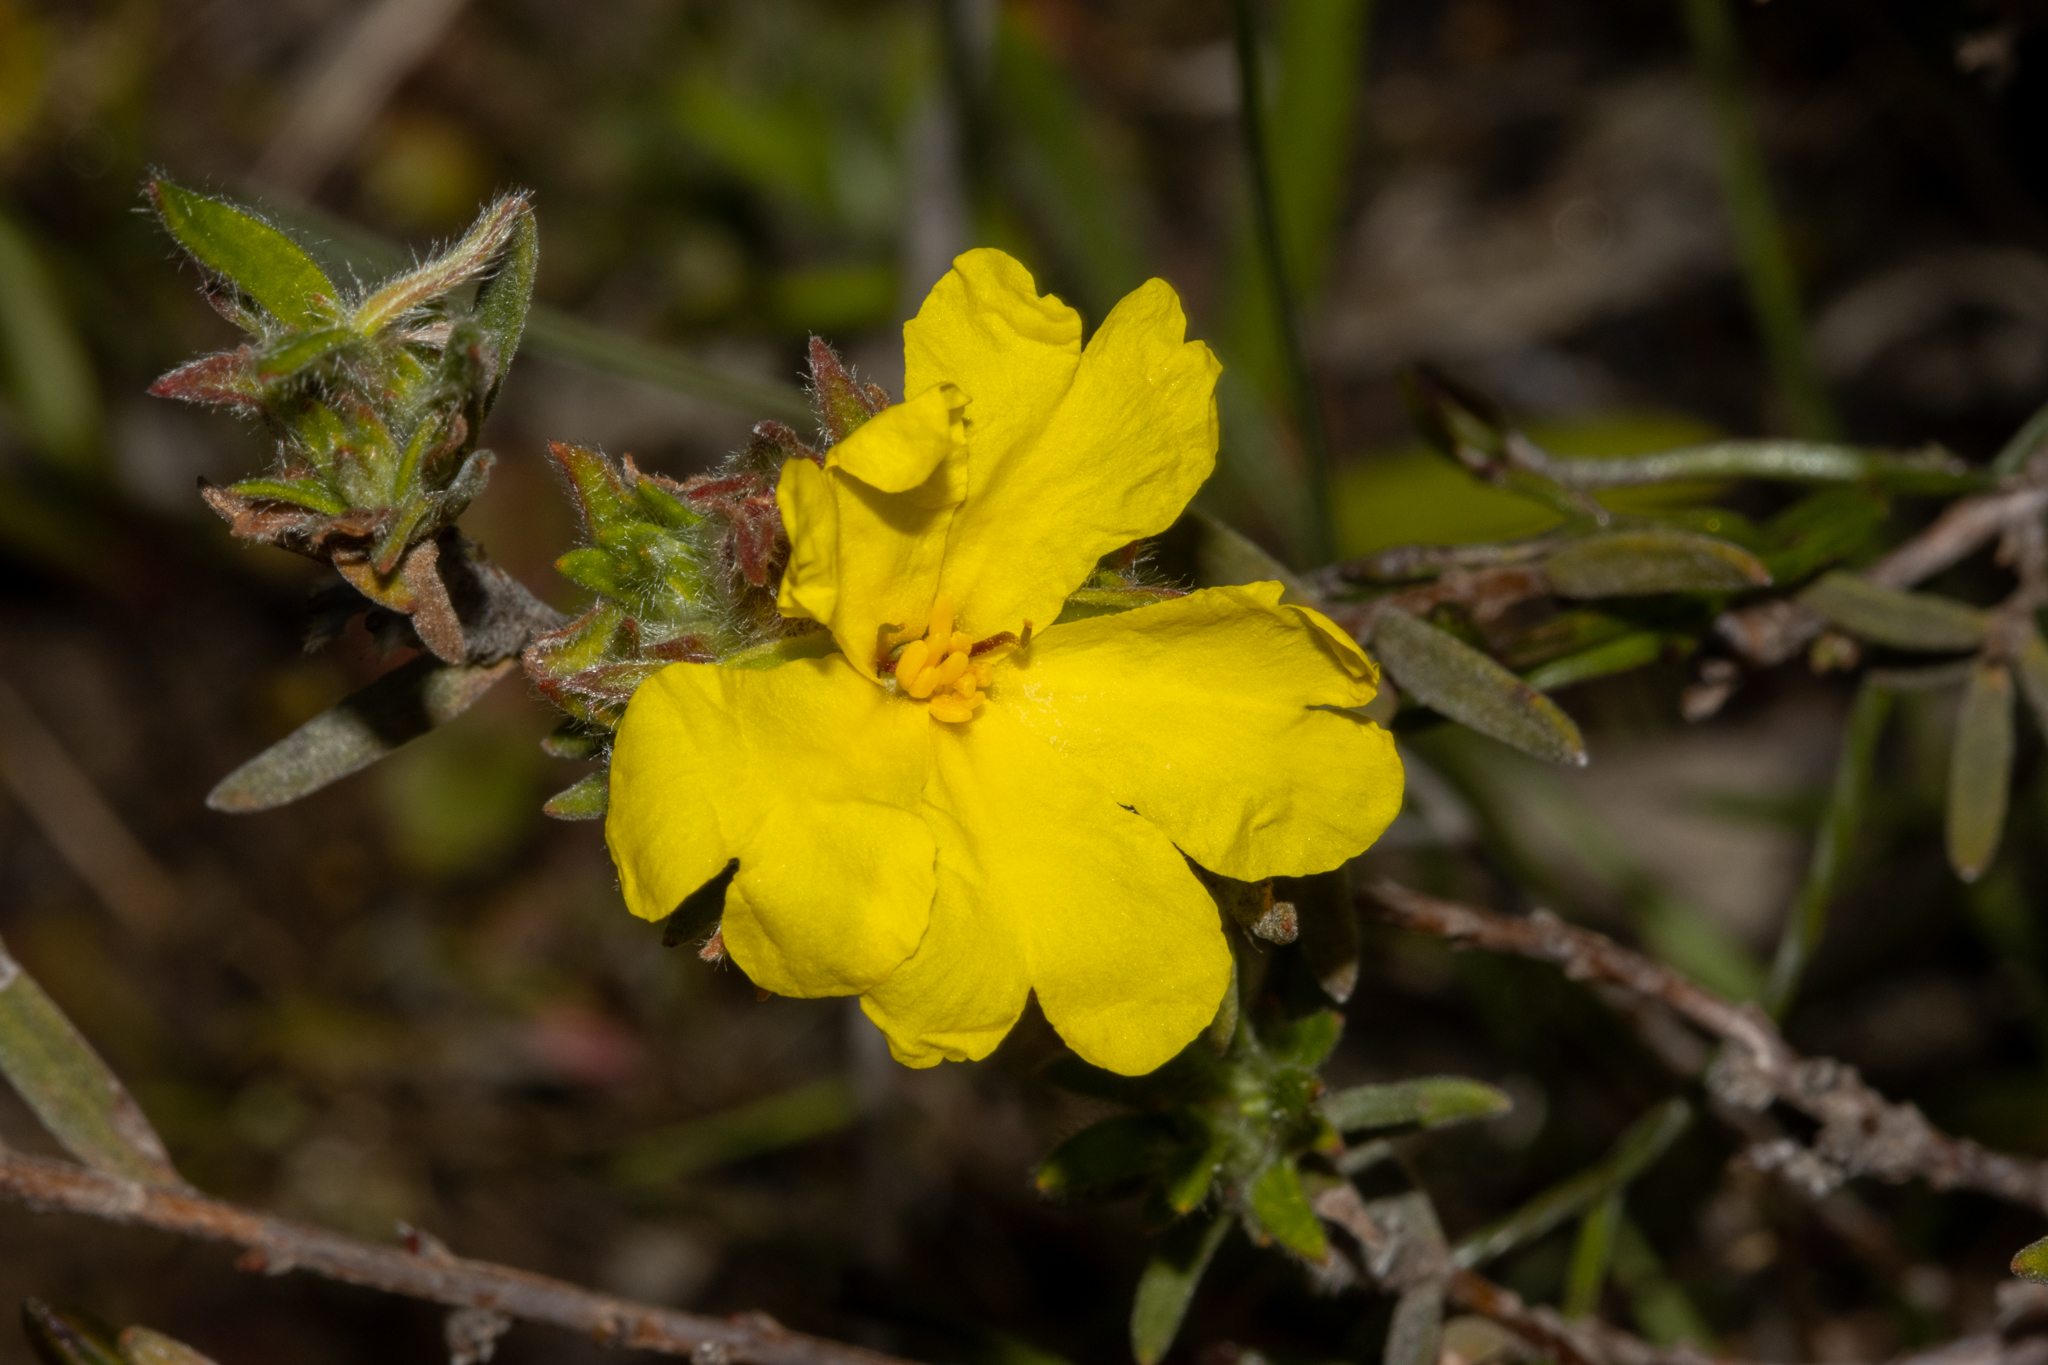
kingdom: Plantae
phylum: Tracheophyta
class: Magnoliopsida
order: Dilleniales
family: Dilleniaceae
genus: Hibbertia
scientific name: Hibbertia crinita
